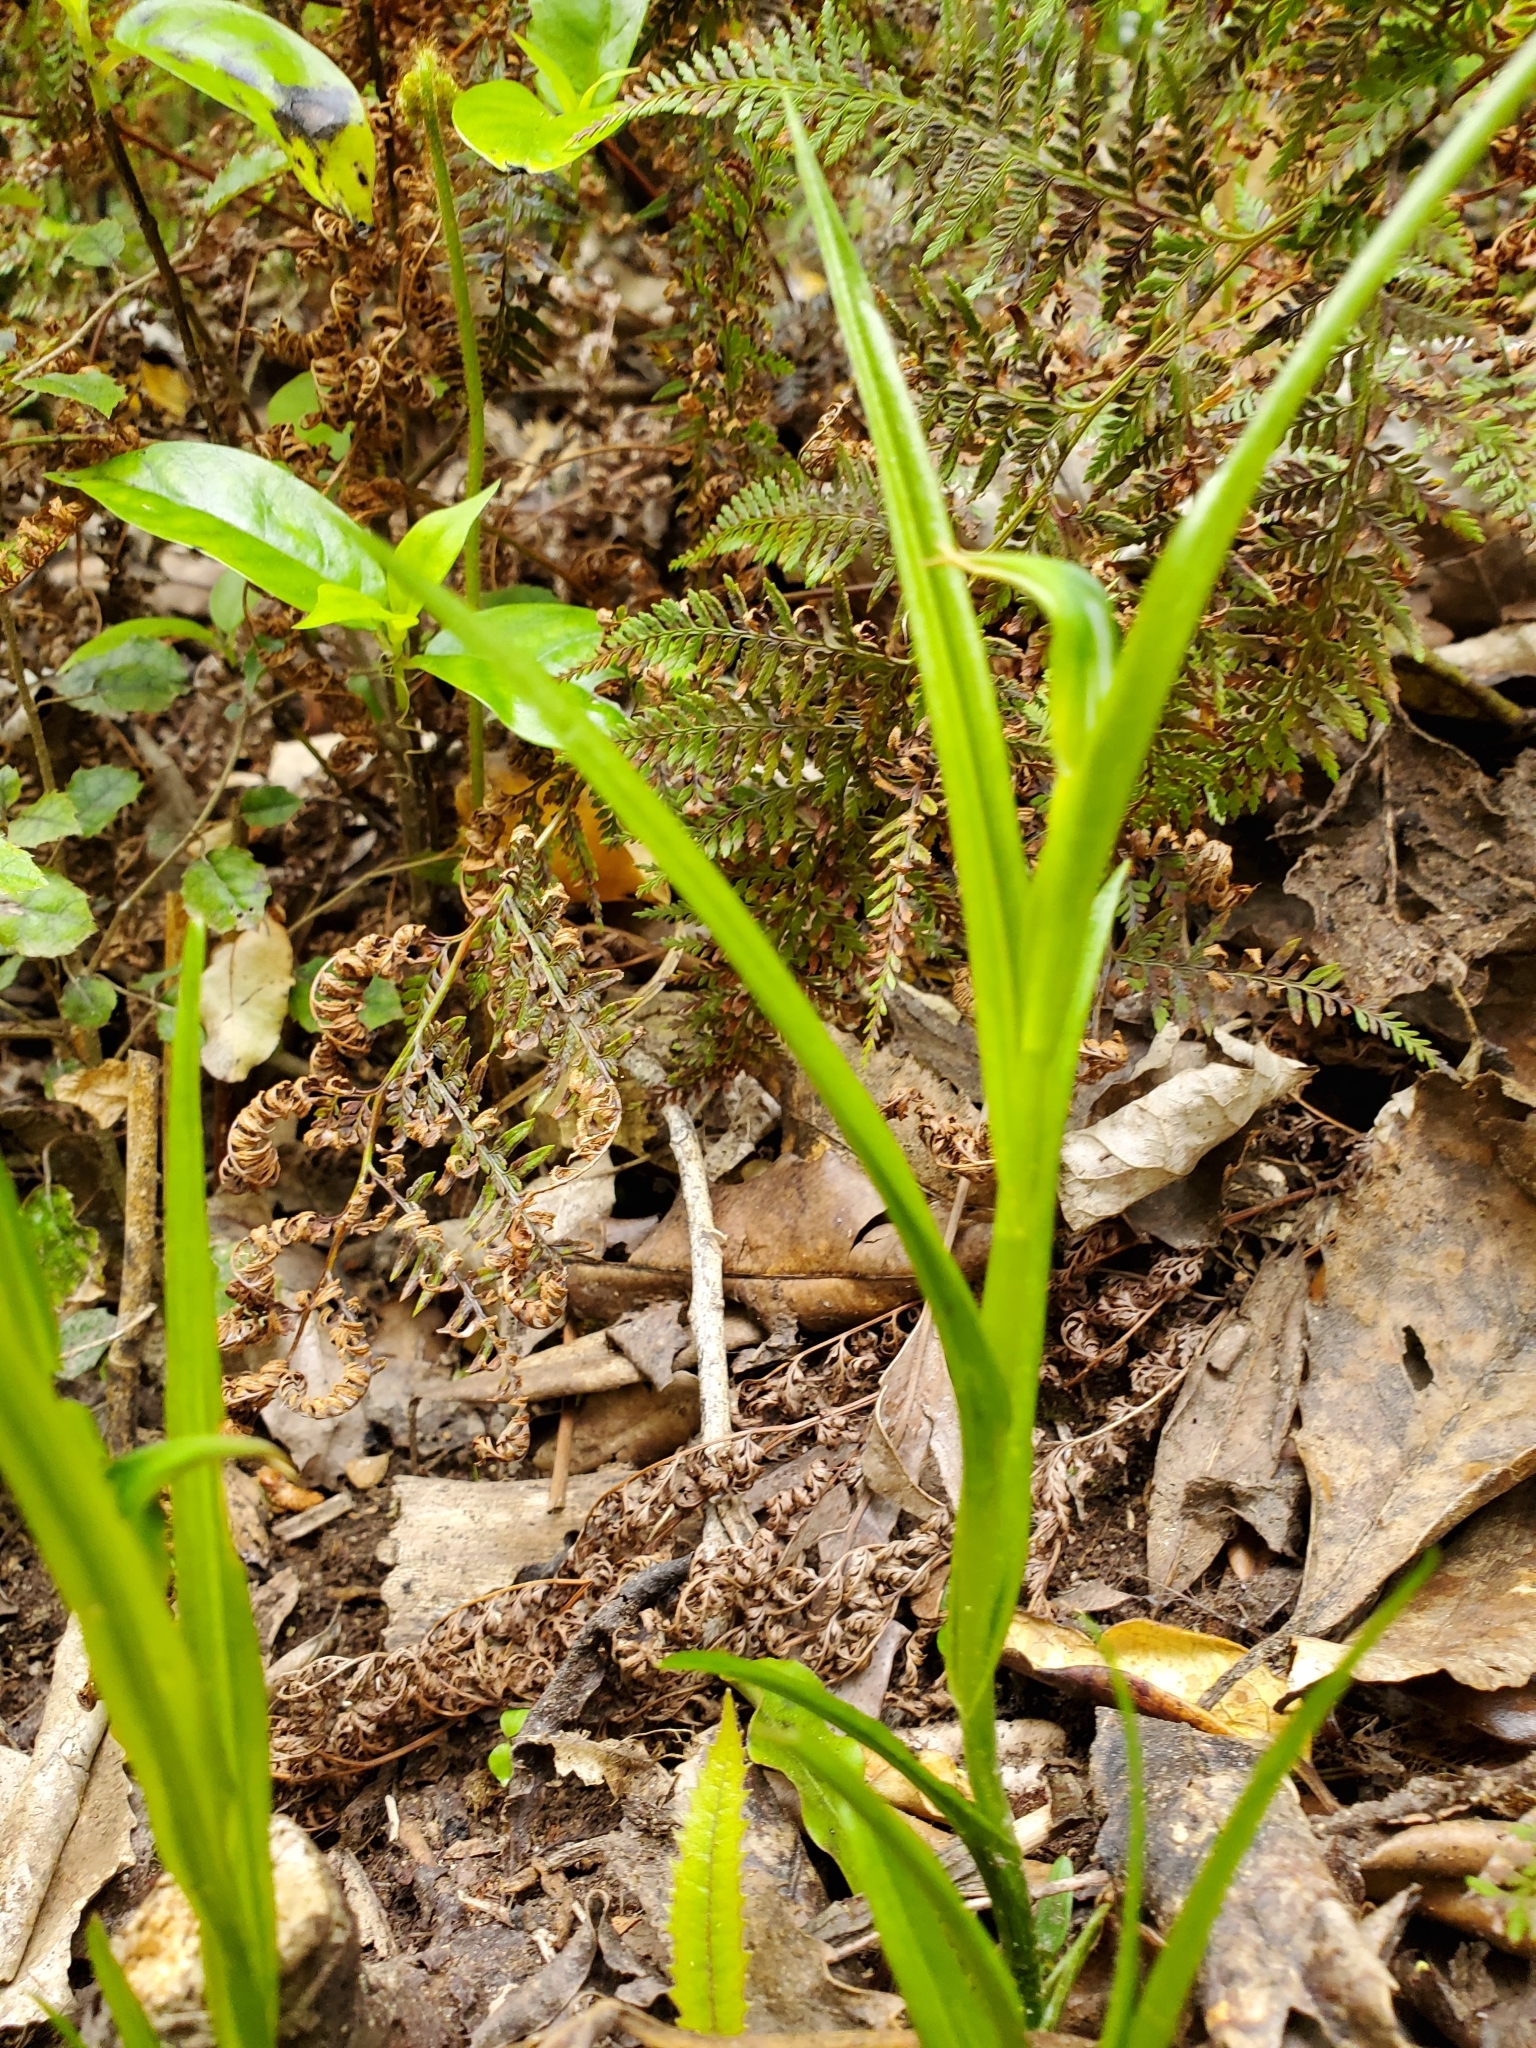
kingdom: Plantae
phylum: Tracheophyta
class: Liliopsida
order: Asparagales
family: Orchidaceae
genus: Pterostylis
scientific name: Pterostylis graminea
